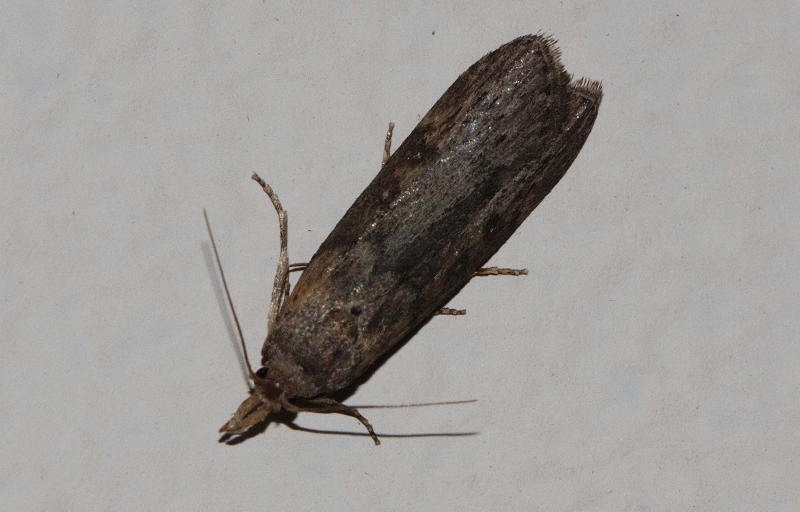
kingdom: Animalia
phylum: Arthropoda
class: Insecta
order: Lepidoptera
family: Pyralidae
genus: Lamoria
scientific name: Lamoria imbella
